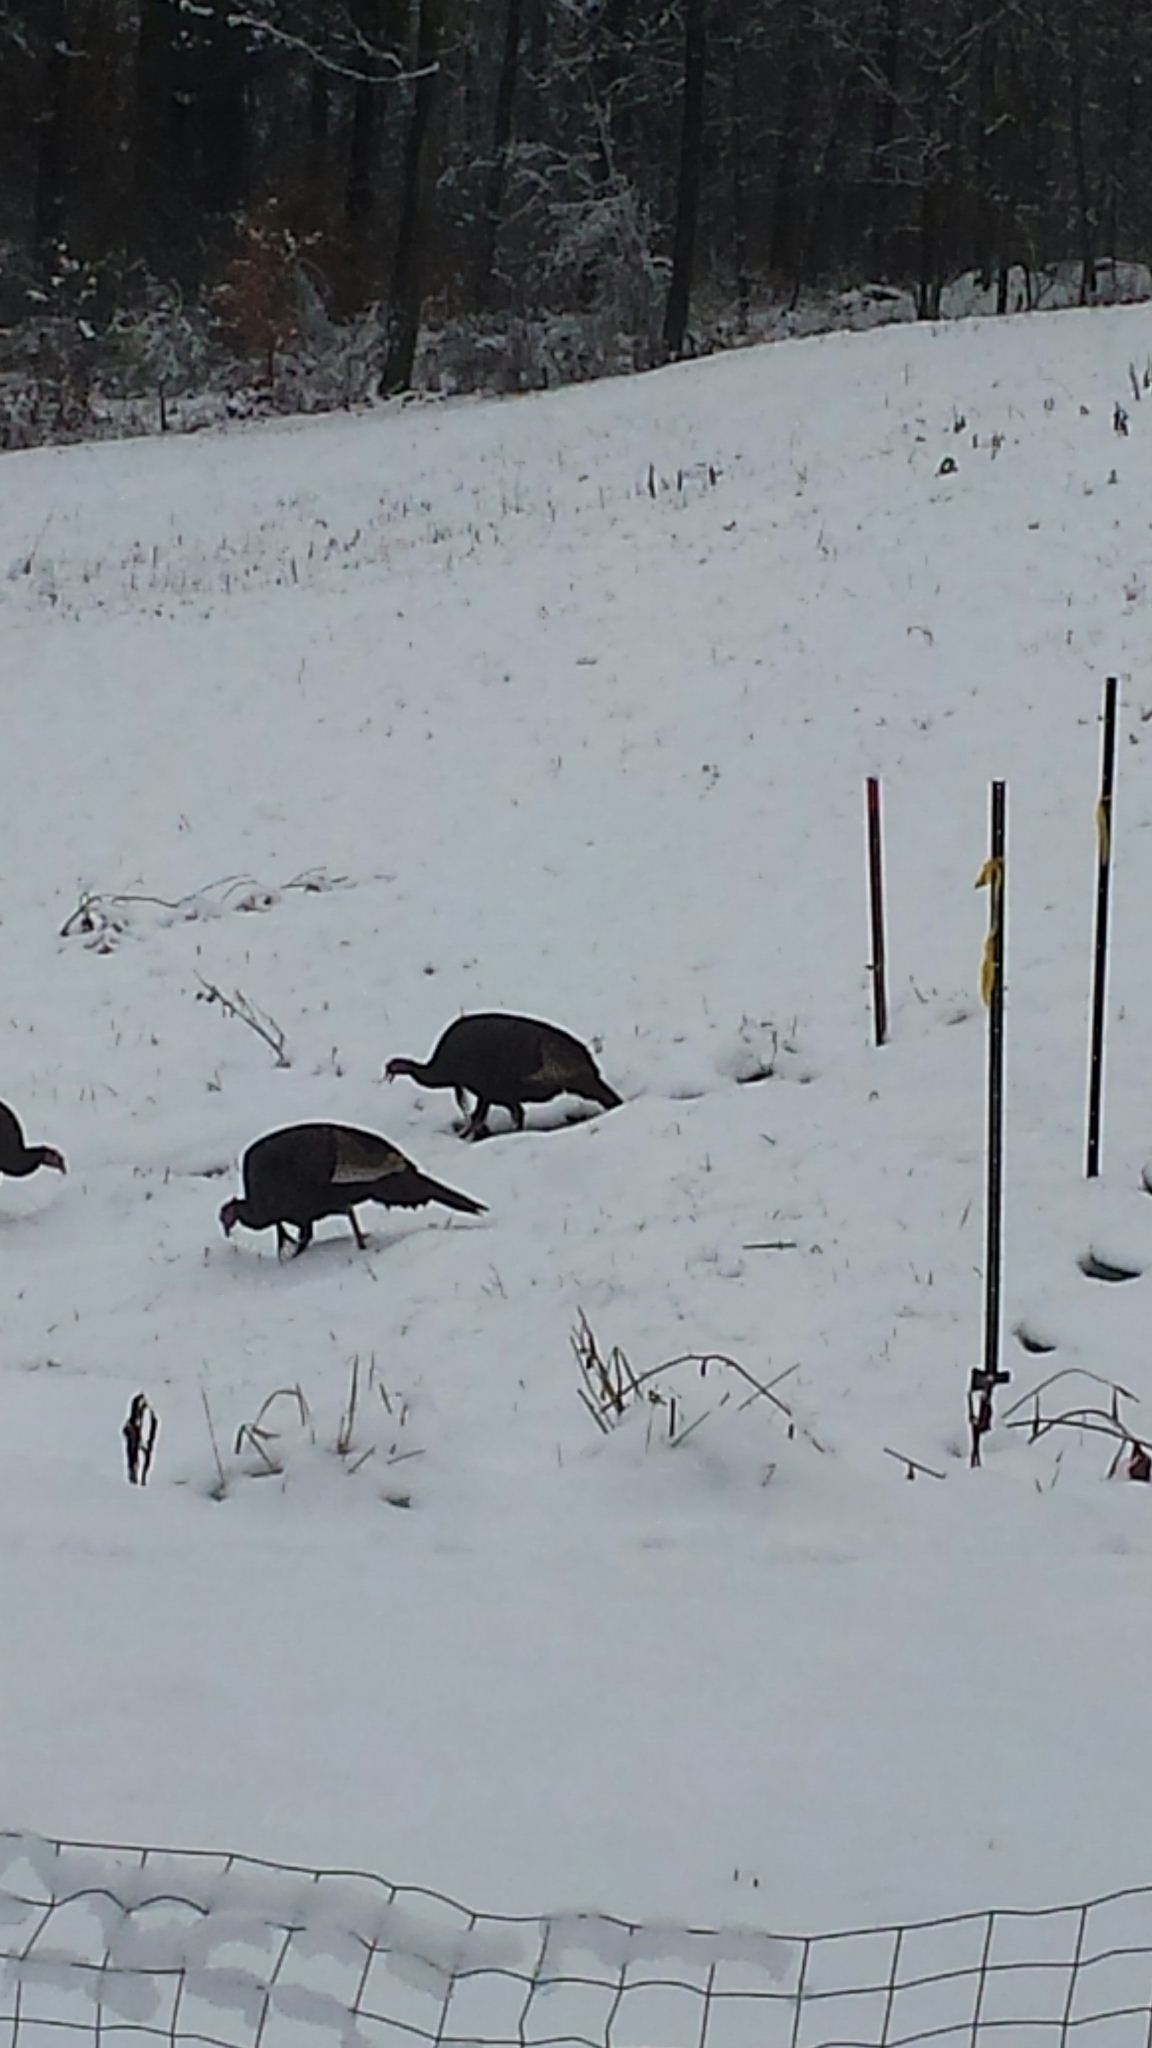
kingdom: Animalia
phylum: Chordata
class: Aves
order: Galliformes
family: Phasianidae
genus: Meleagris
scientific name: Meleagris gallopavo
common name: Wild turkey
